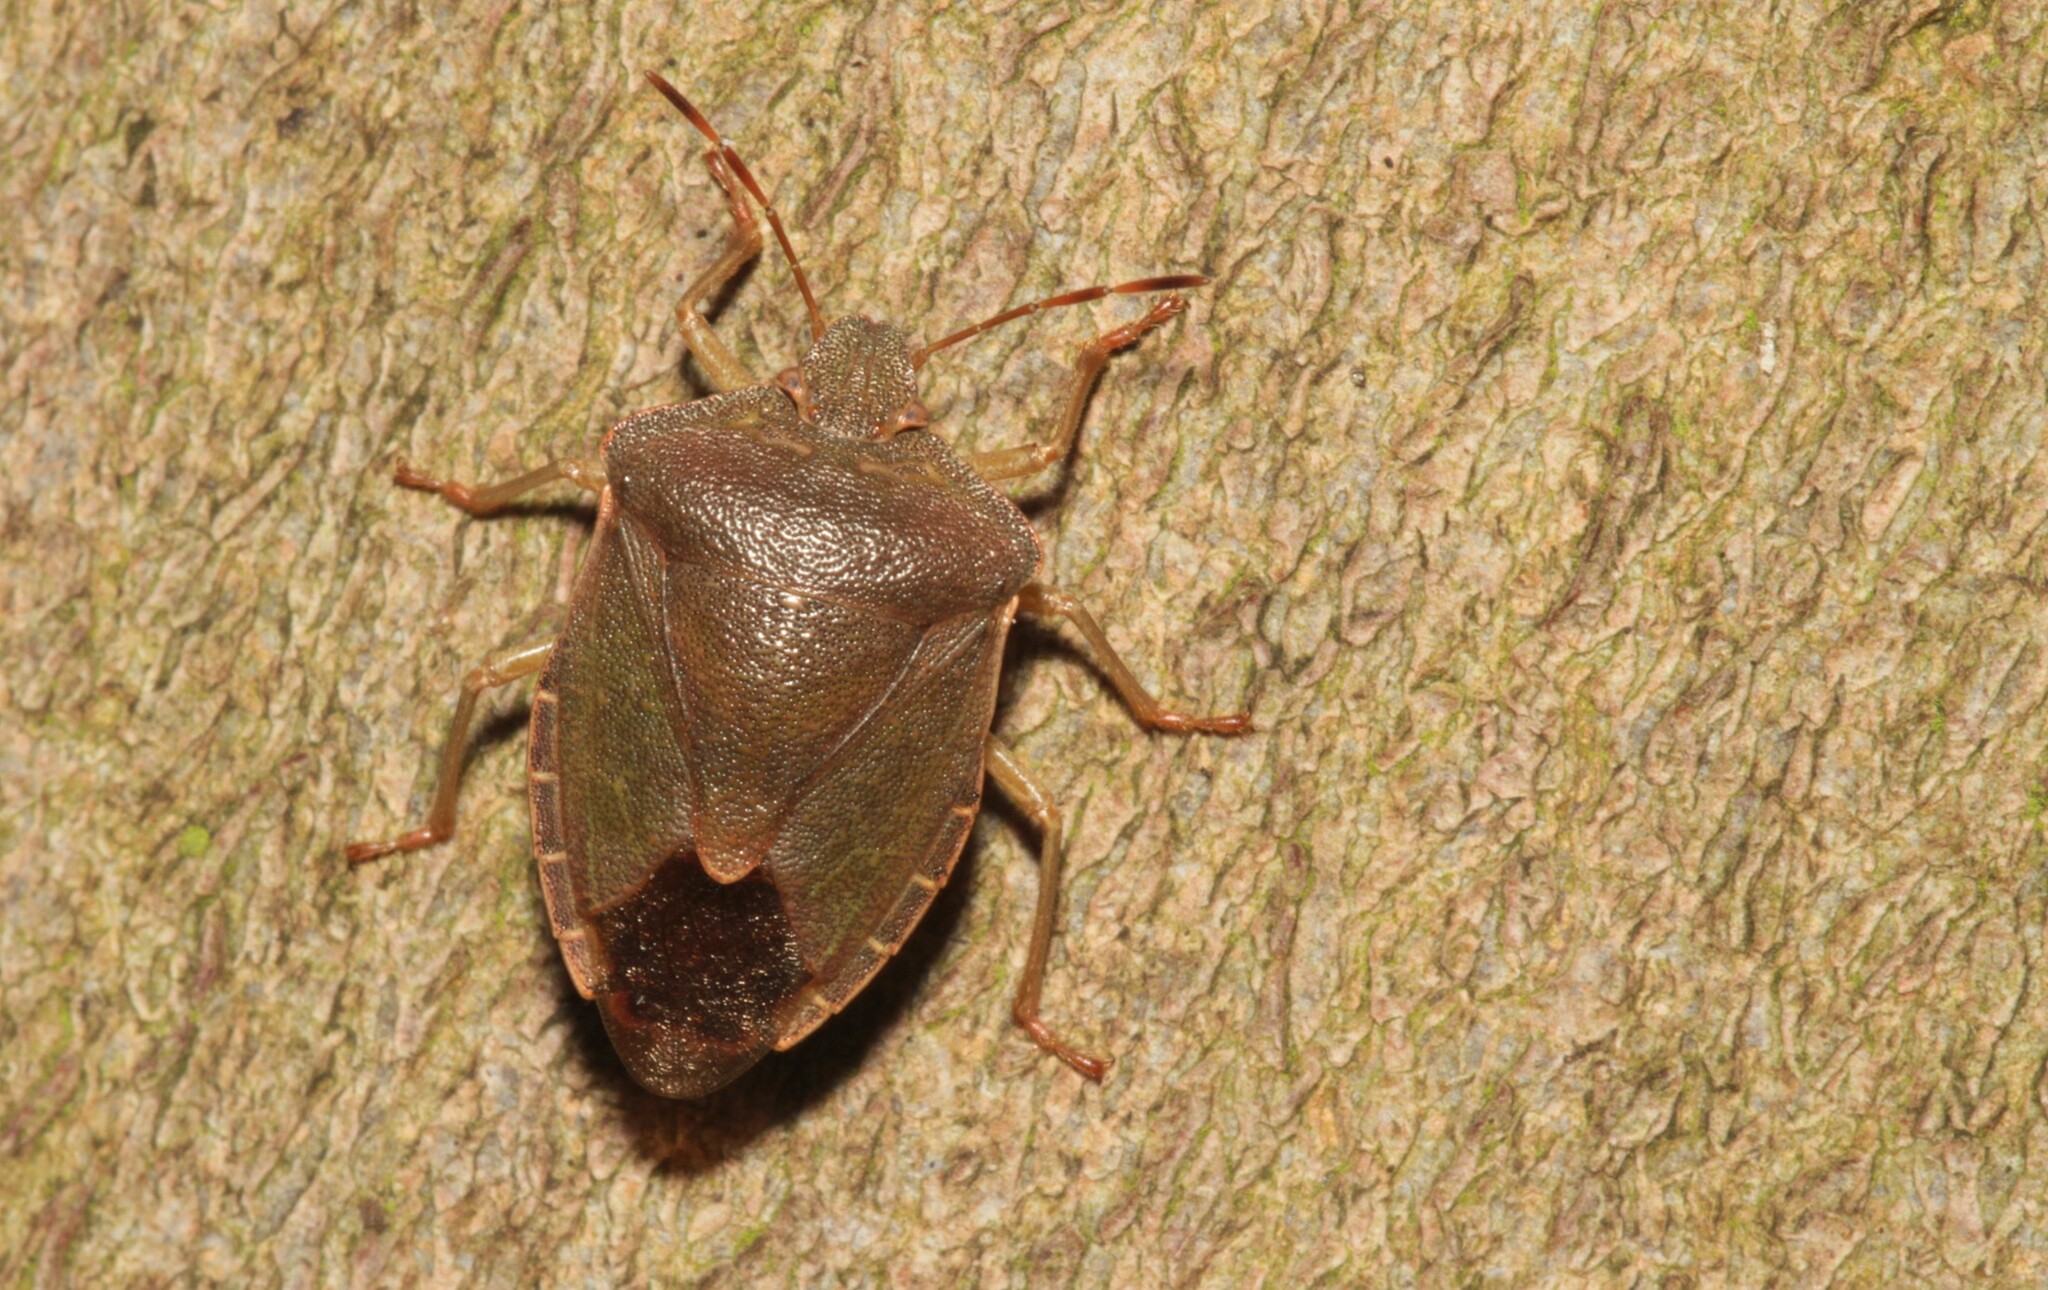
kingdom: Animalia
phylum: Arthropoda
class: Insecta
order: Hemiptera
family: Pentatomidae
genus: Palomena
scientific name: Palomena prasina
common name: Green shieldbug
